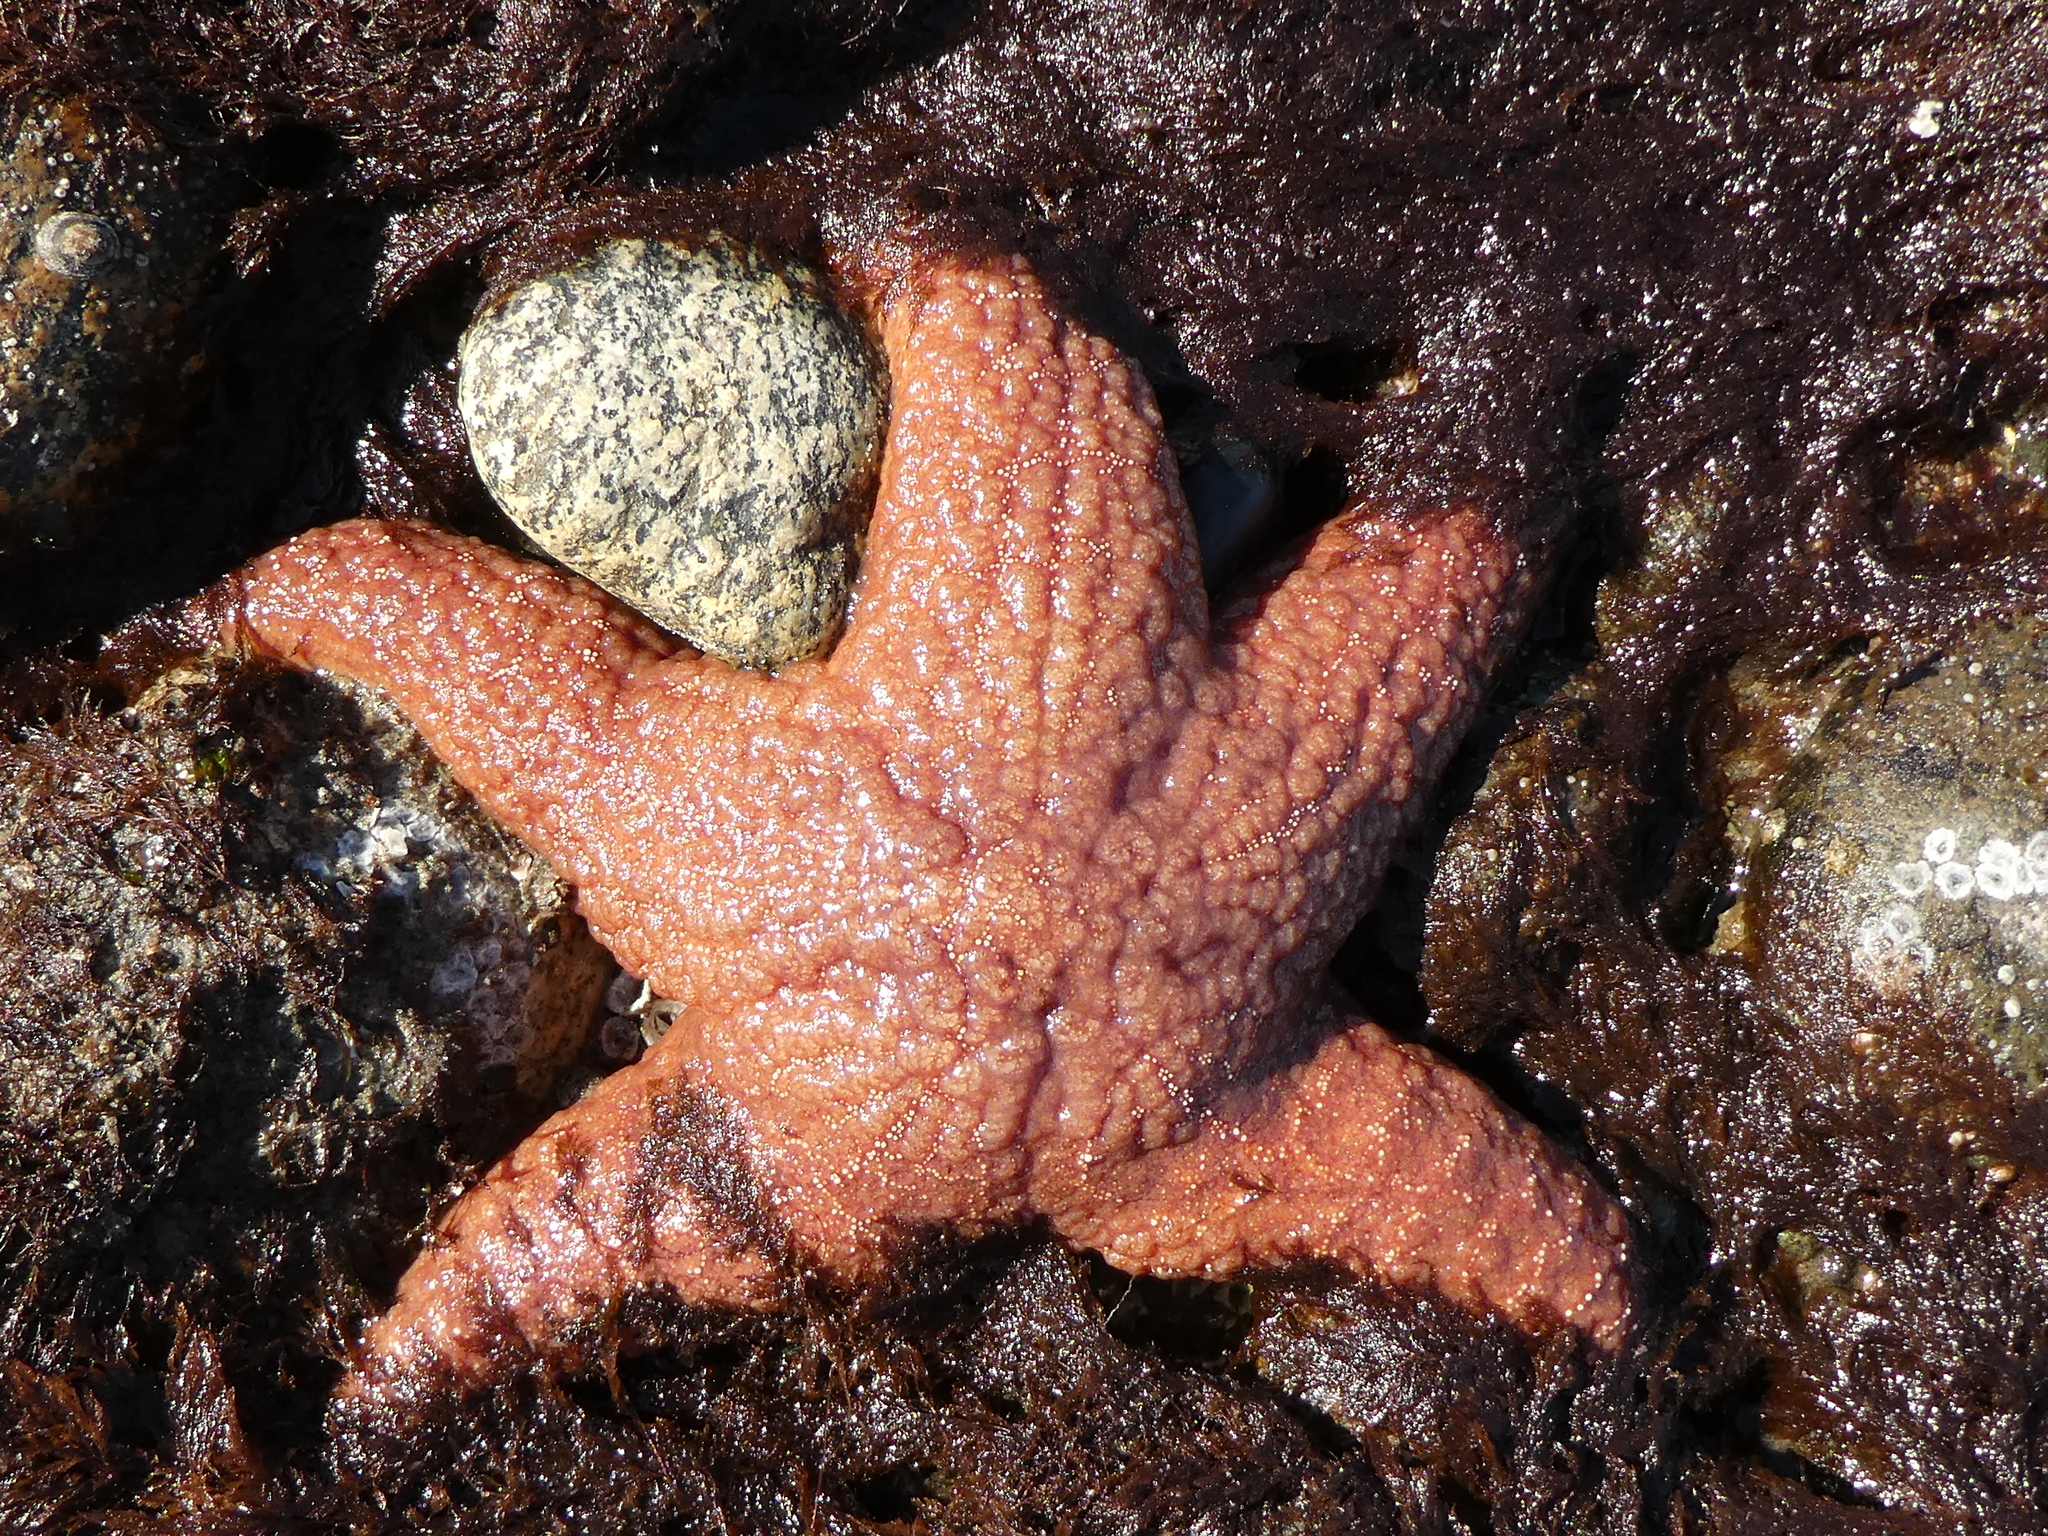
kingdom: Animalia
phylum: Echinodermata
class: Asteroidea
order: Forcipulatida
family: Asteriidae
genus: Pisaster
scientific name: Pisaster ochraceus
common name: Ochre stars
